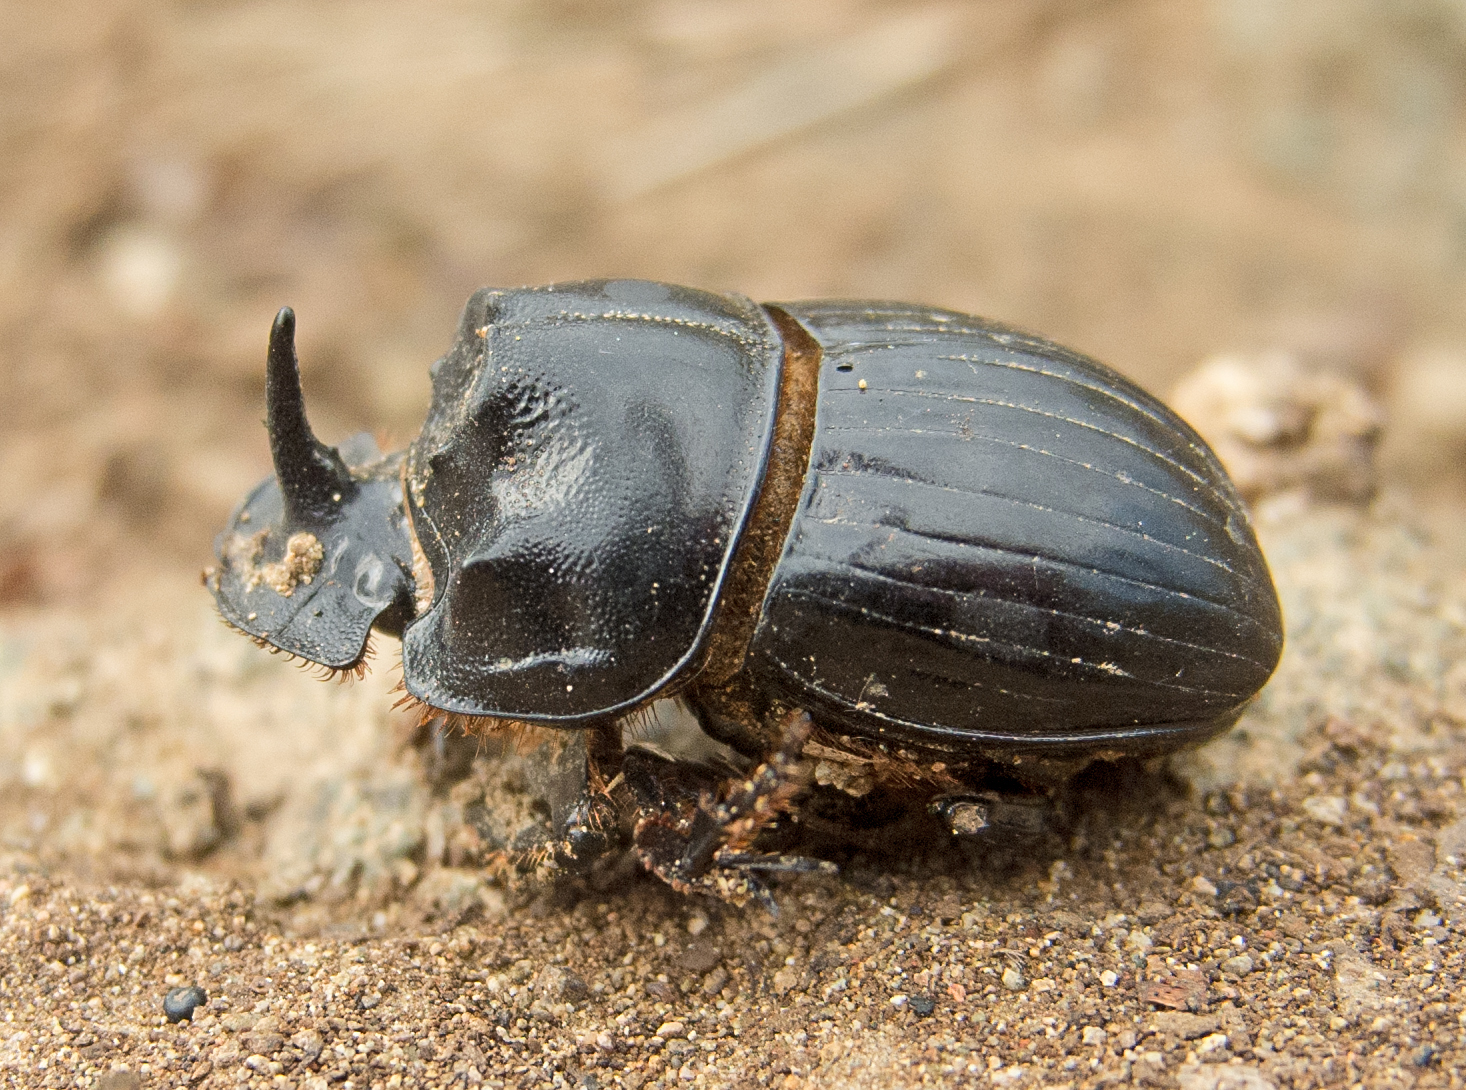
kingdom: Animalia
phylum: Arthropoda
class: Insecta
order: Coleoptera
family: Scarabaeidae
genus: Copris
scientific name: Copris lunaris
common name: Horned dung beetle
